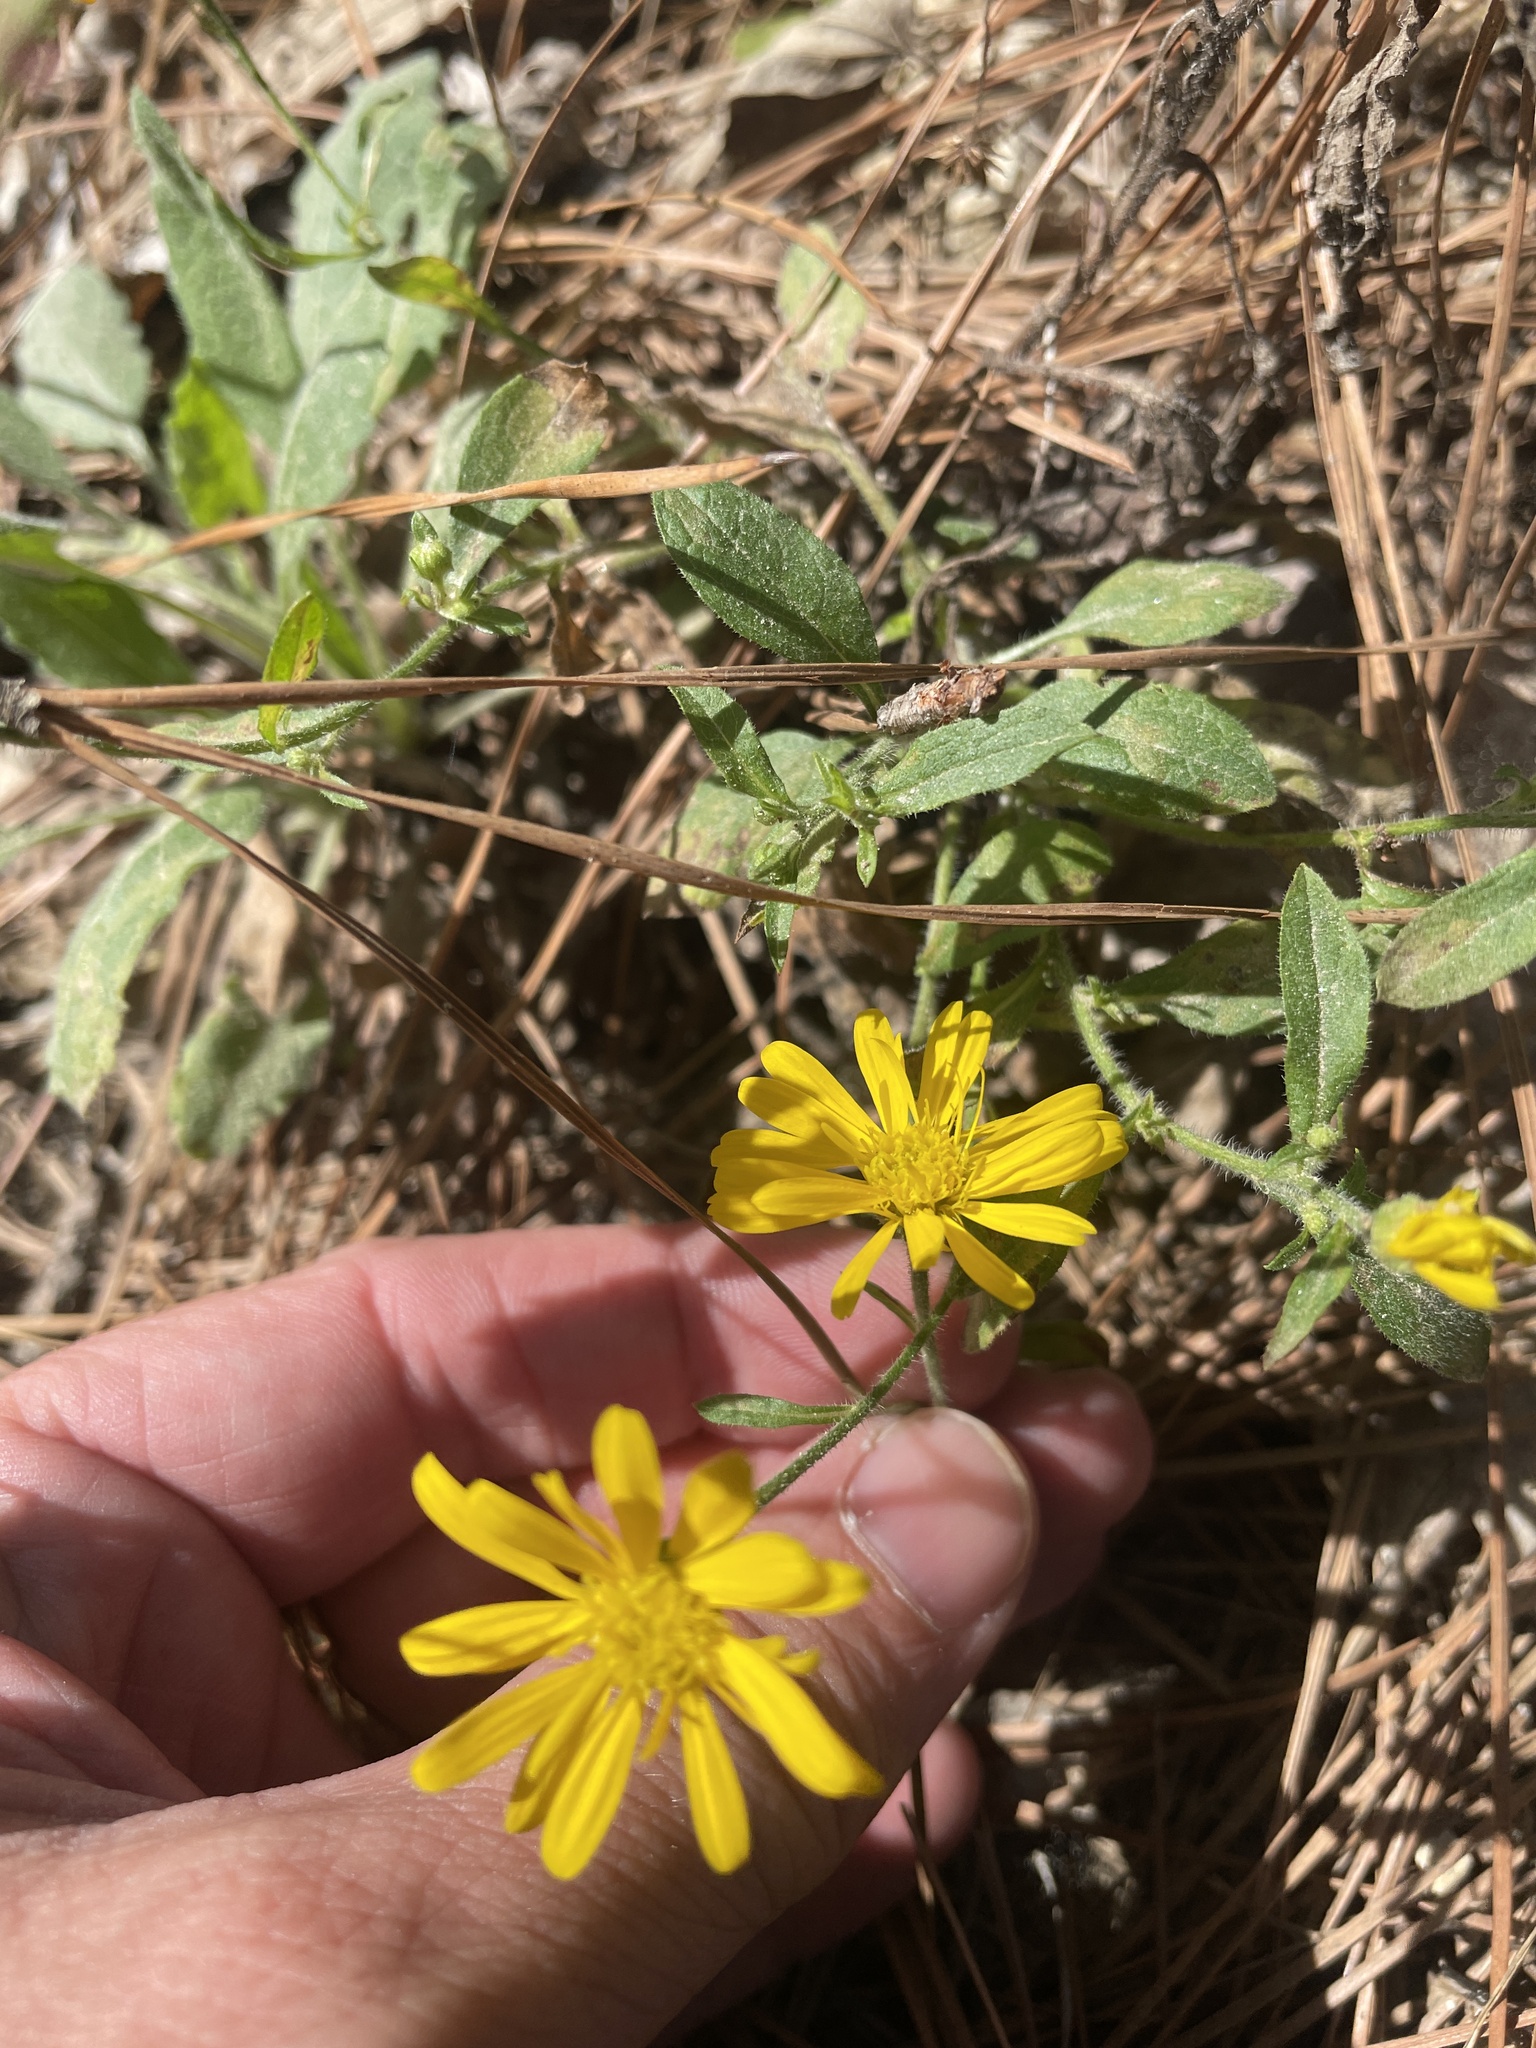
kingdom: Plantae
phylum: Tracheophyta
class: Magnoliopsida
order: Asterales
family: Asteraceae
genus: Heterotheca
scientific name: Heterotheca subaxillaris
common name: Camphorweed
